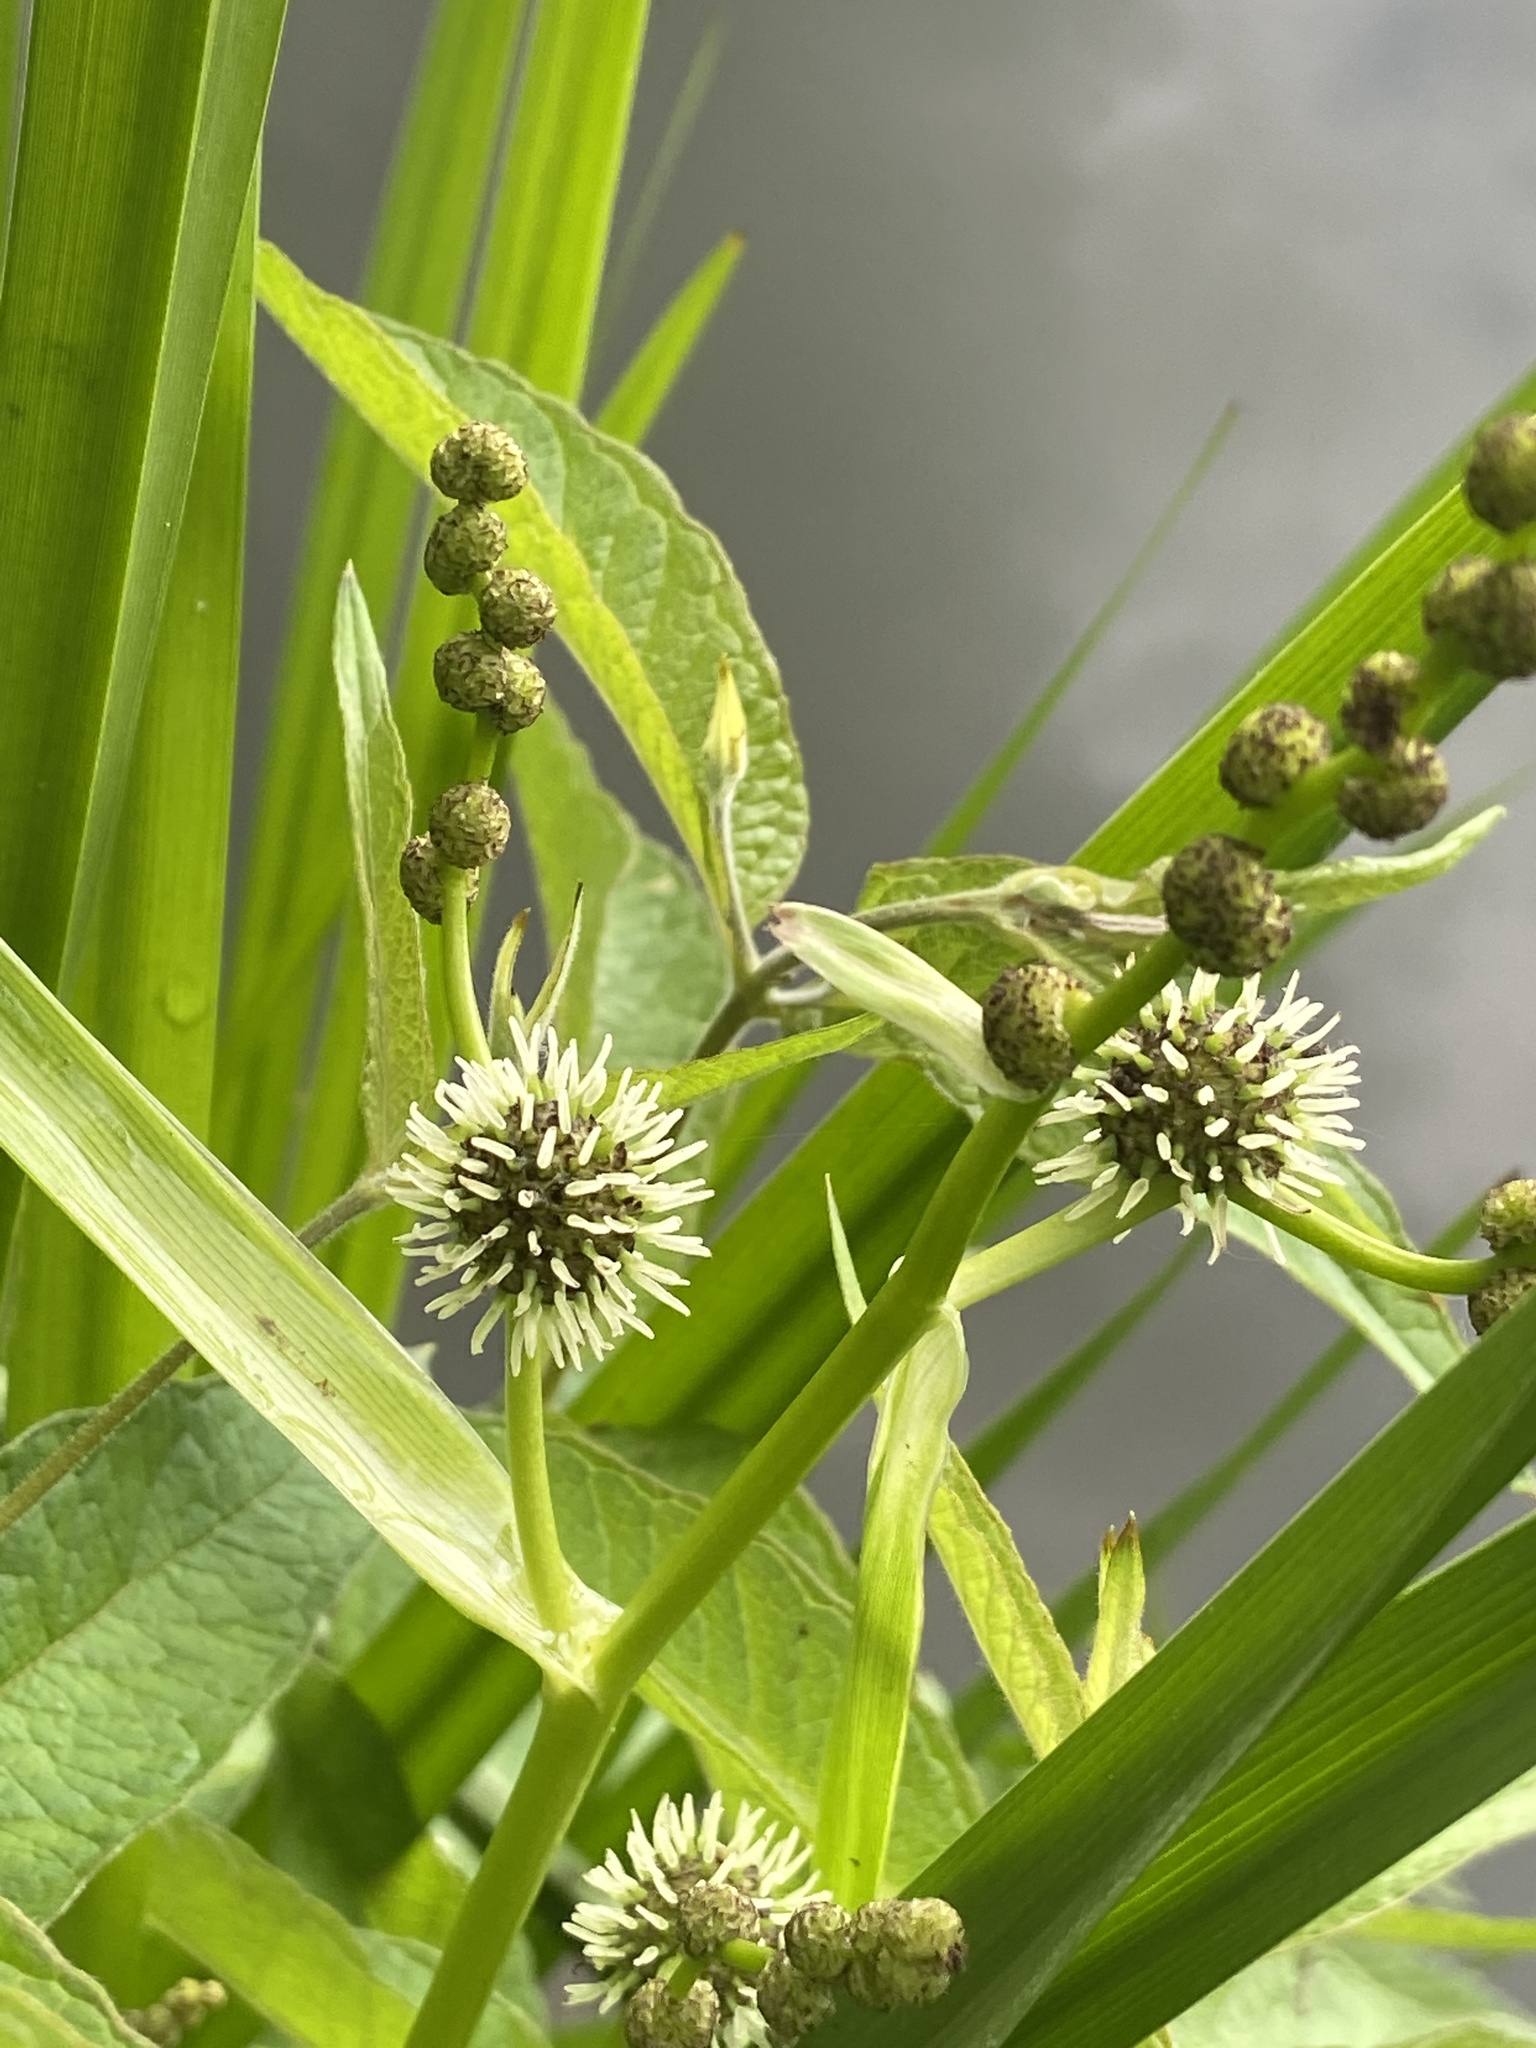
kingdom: Plantae
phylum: Tracheophyta
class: Liliopsida
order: Poales
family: Typhaceae
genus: Sparganium
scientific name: Sparganium erectum
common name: Branched bur-reed
